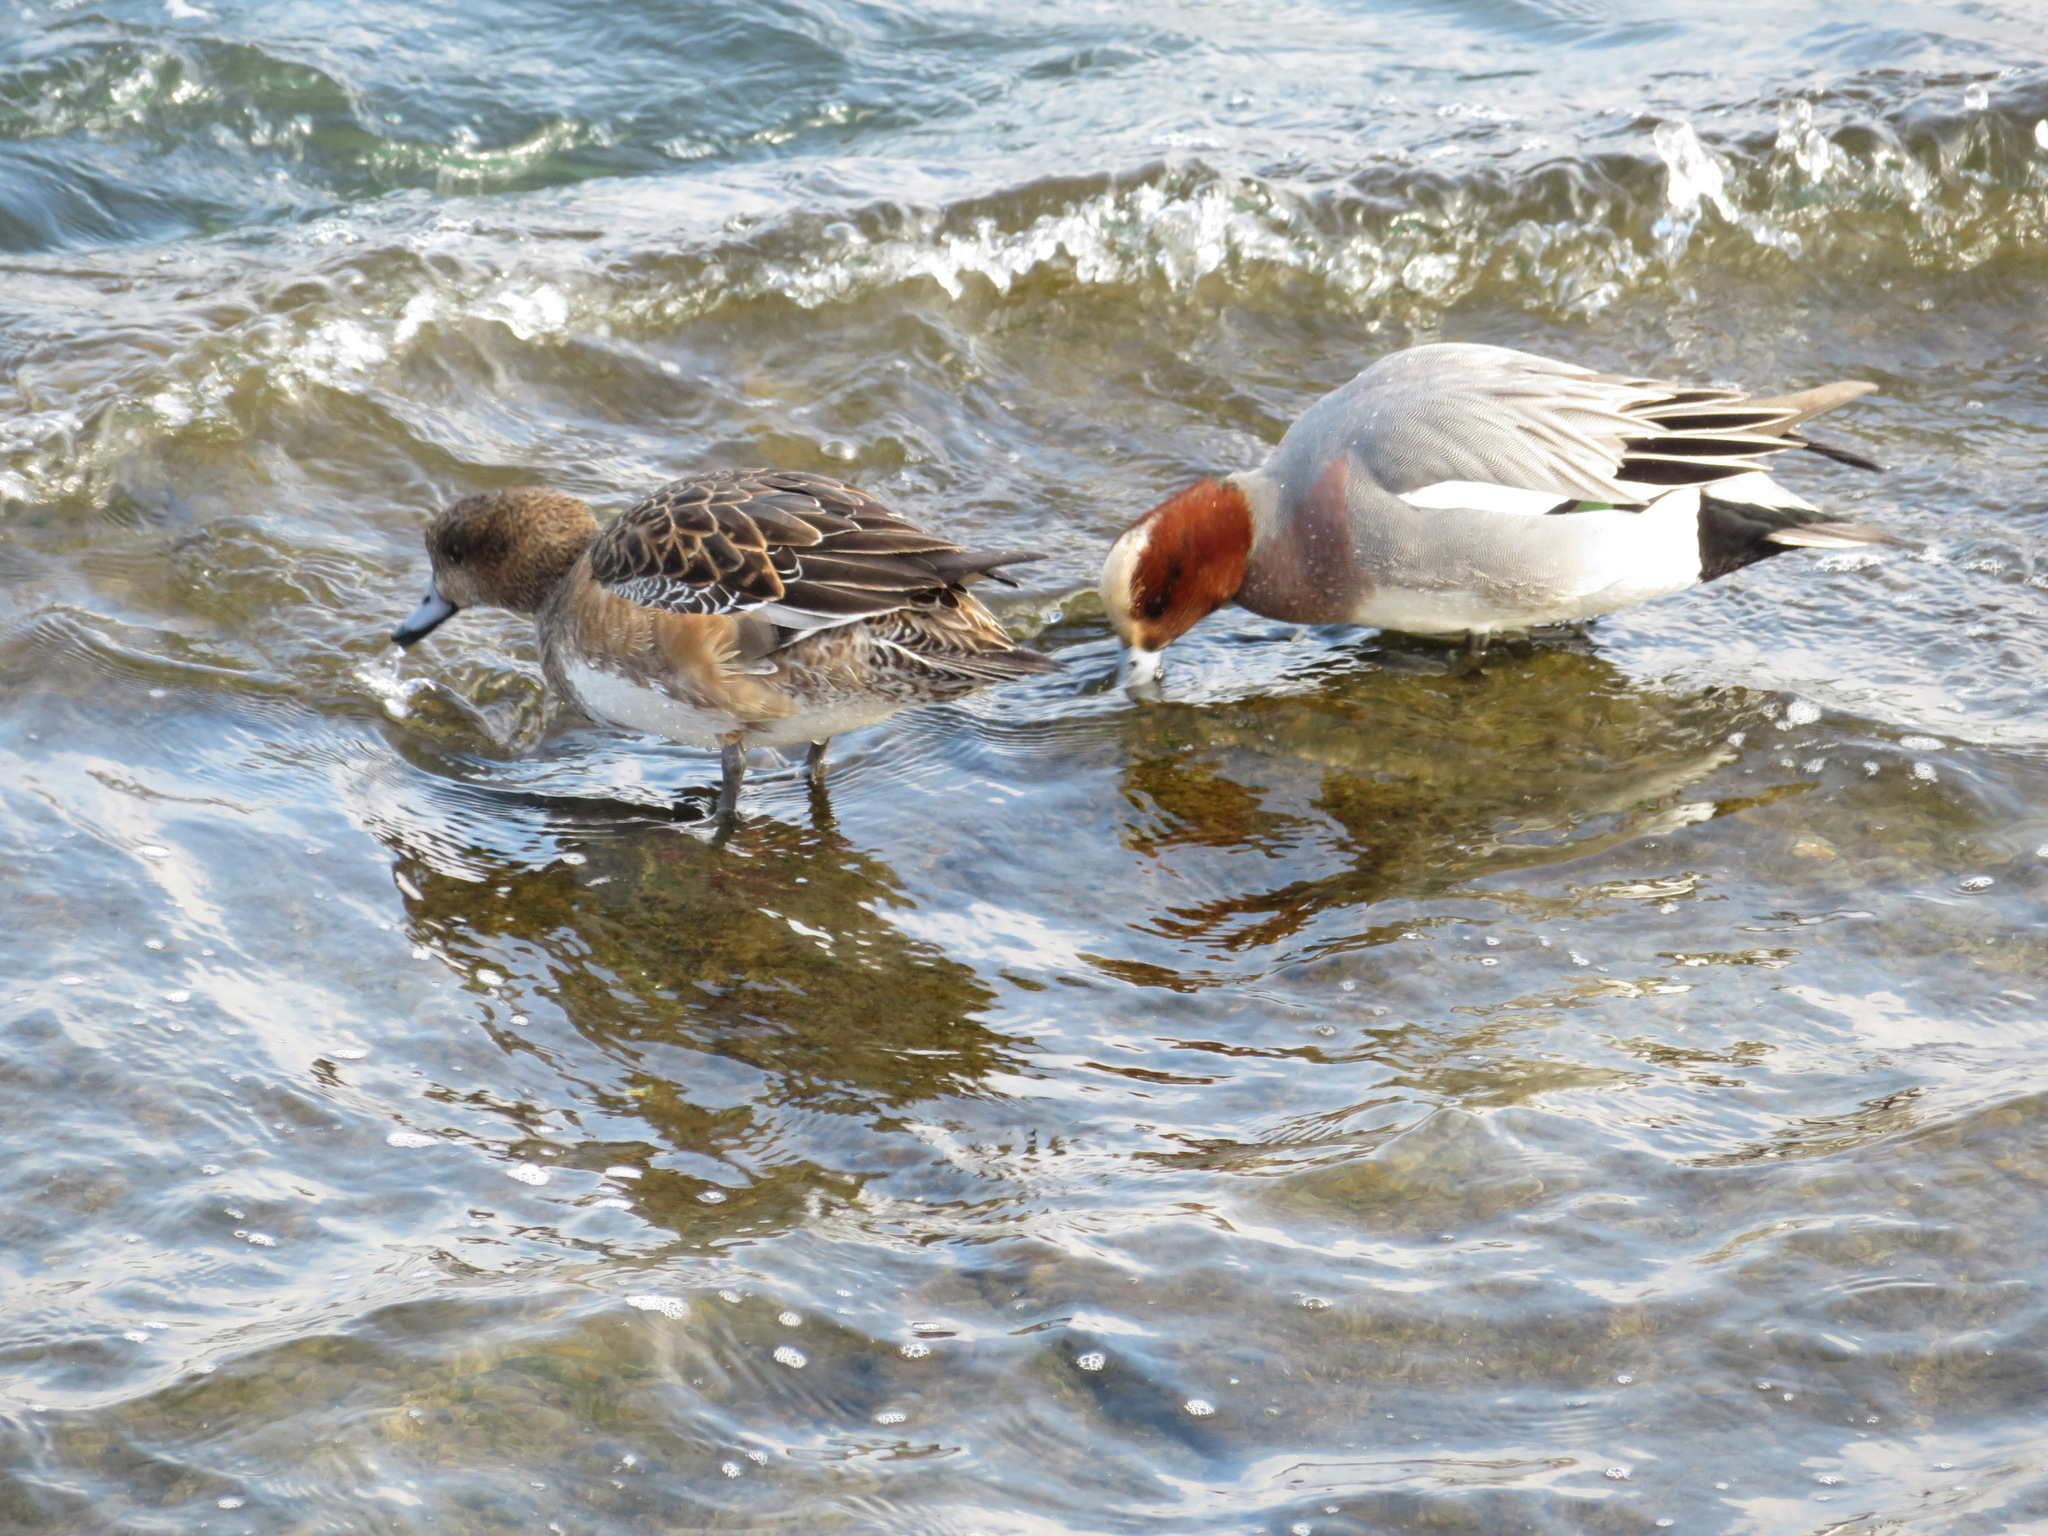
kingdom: Animalia
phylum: Chordata
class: Aves
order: Anseriformes
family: Anatidae
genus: Mareca
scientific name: Mareca penelope
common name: Eurasian wigeon
